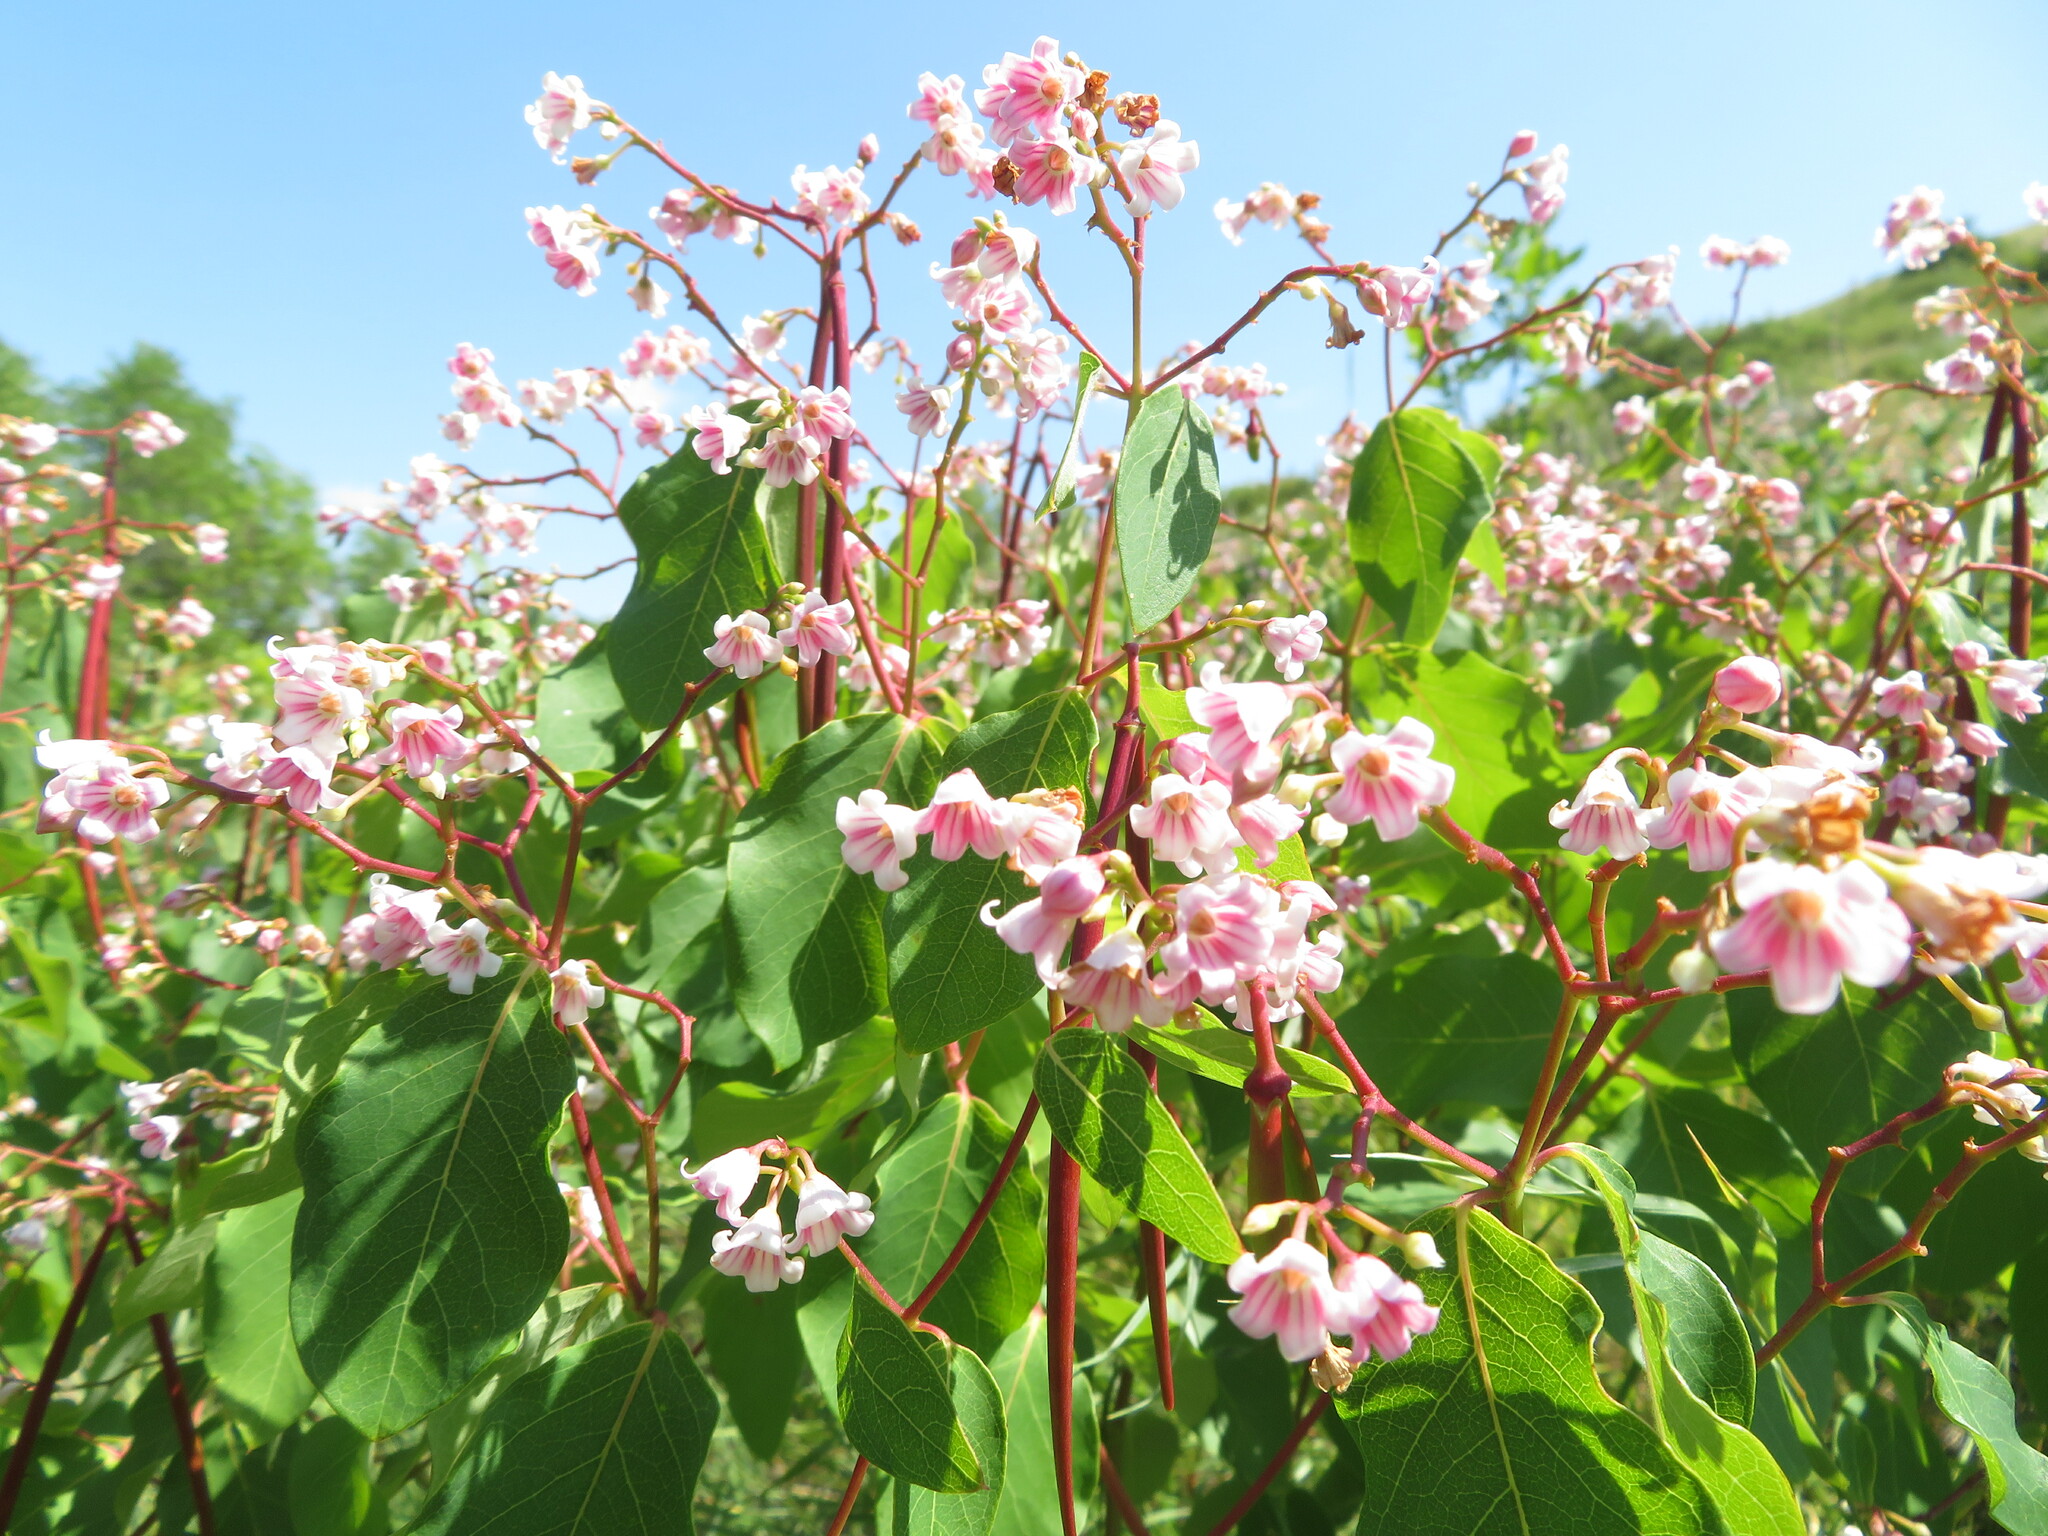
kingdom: Plantae
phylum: Tracheophyta
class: Magnoliopsida
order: Gentianales
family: Apocynaceae
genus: Apocynum
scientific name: Apocynum androsaemifolium
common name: Spreading dogbane
